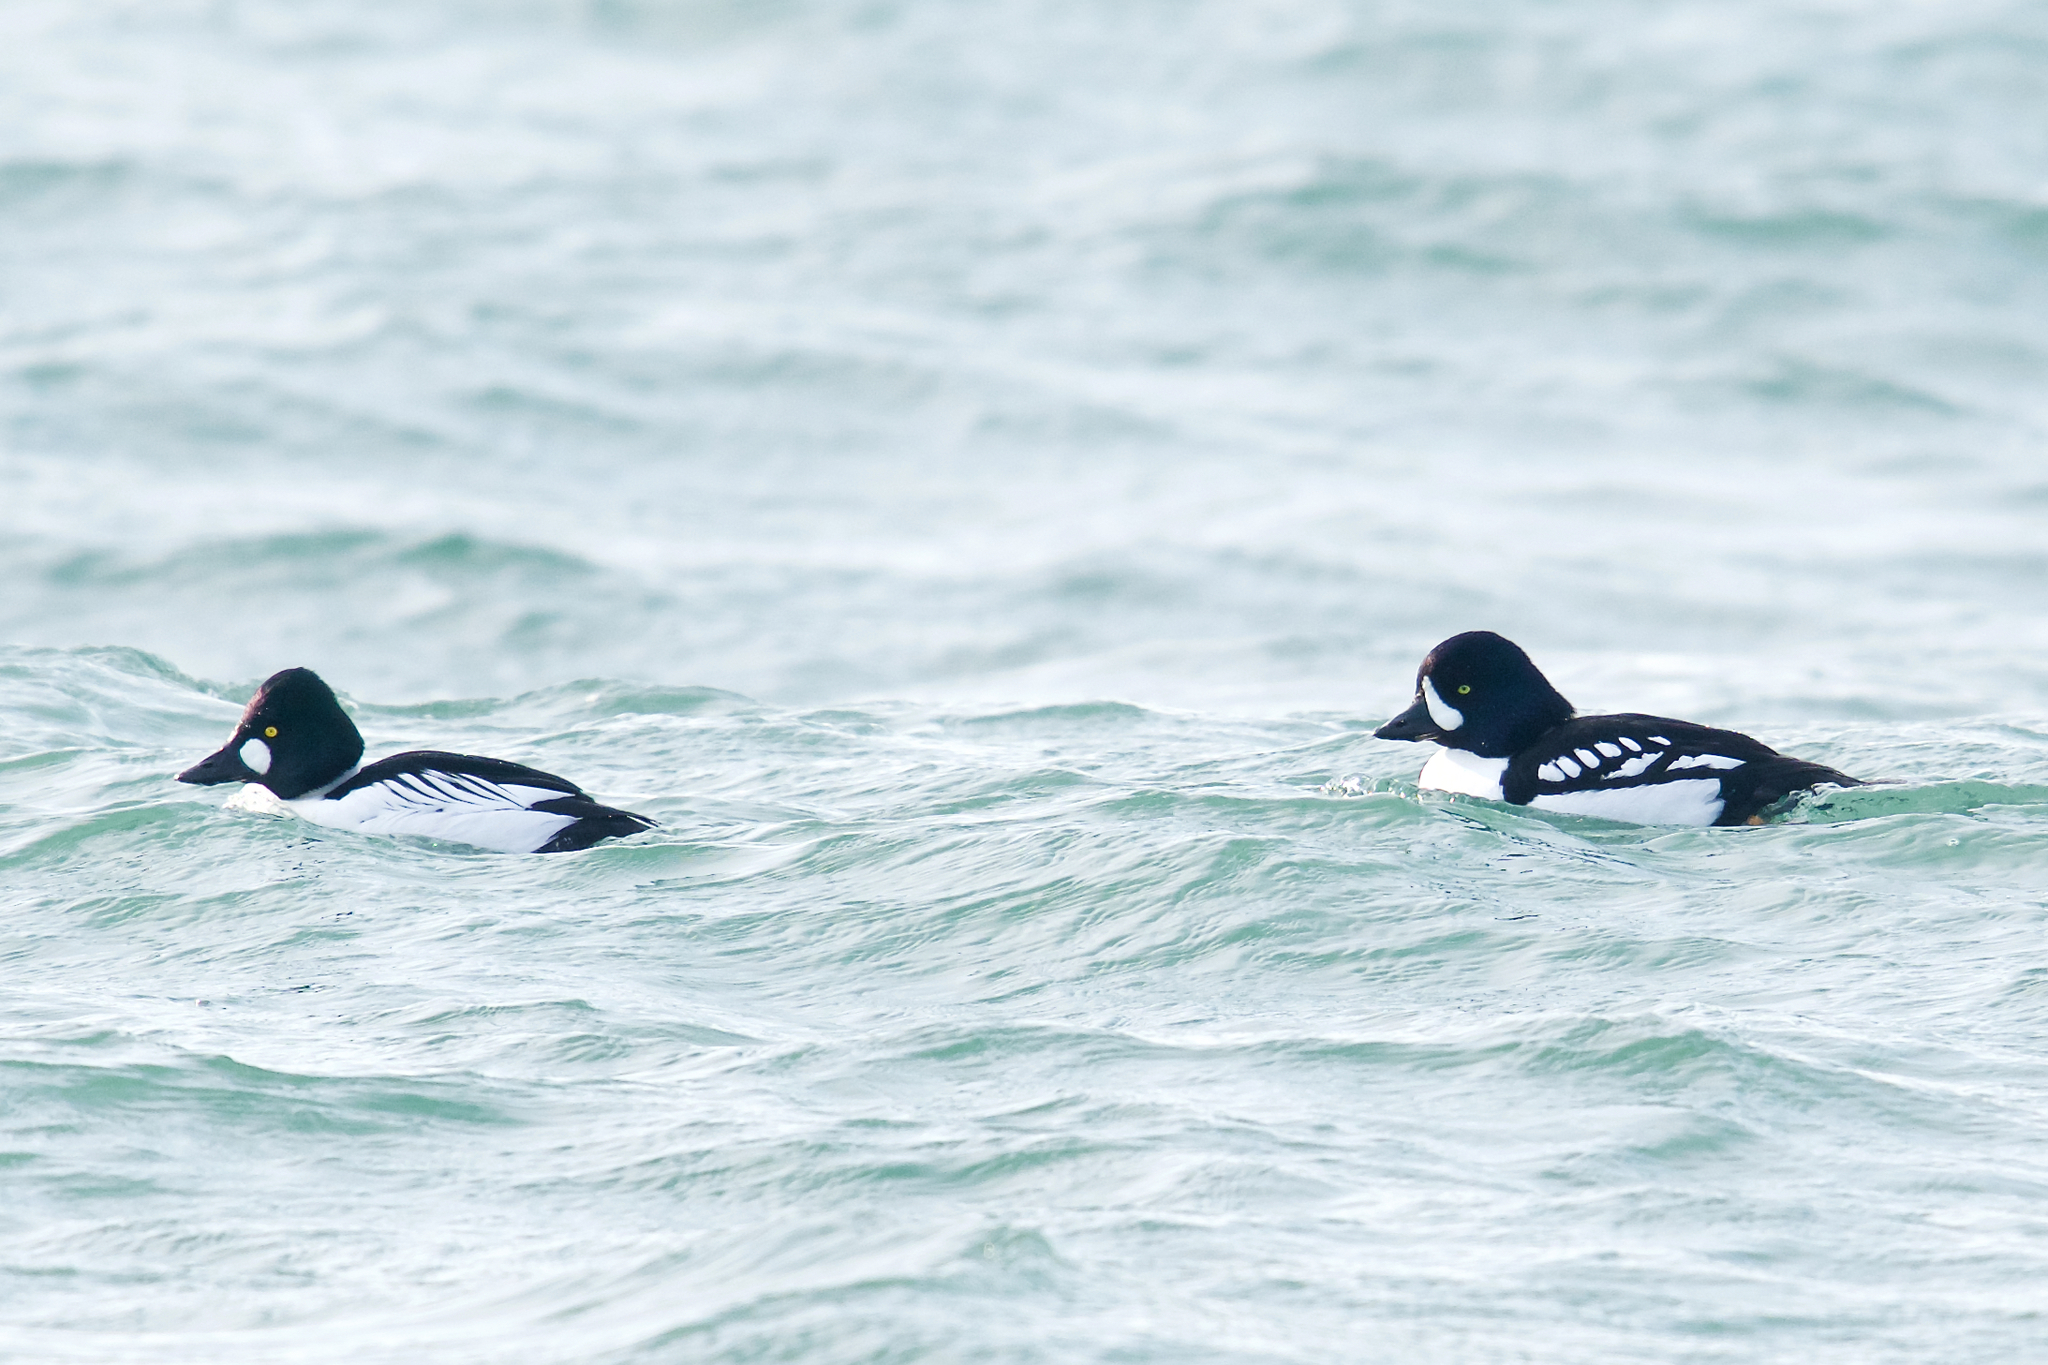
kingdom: Animalia
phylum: Chordata
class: Aves
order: Anseriformes
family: Anatidae
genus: Bucephala
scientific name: Bucephala islandica
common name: Barrow's goldeneye
